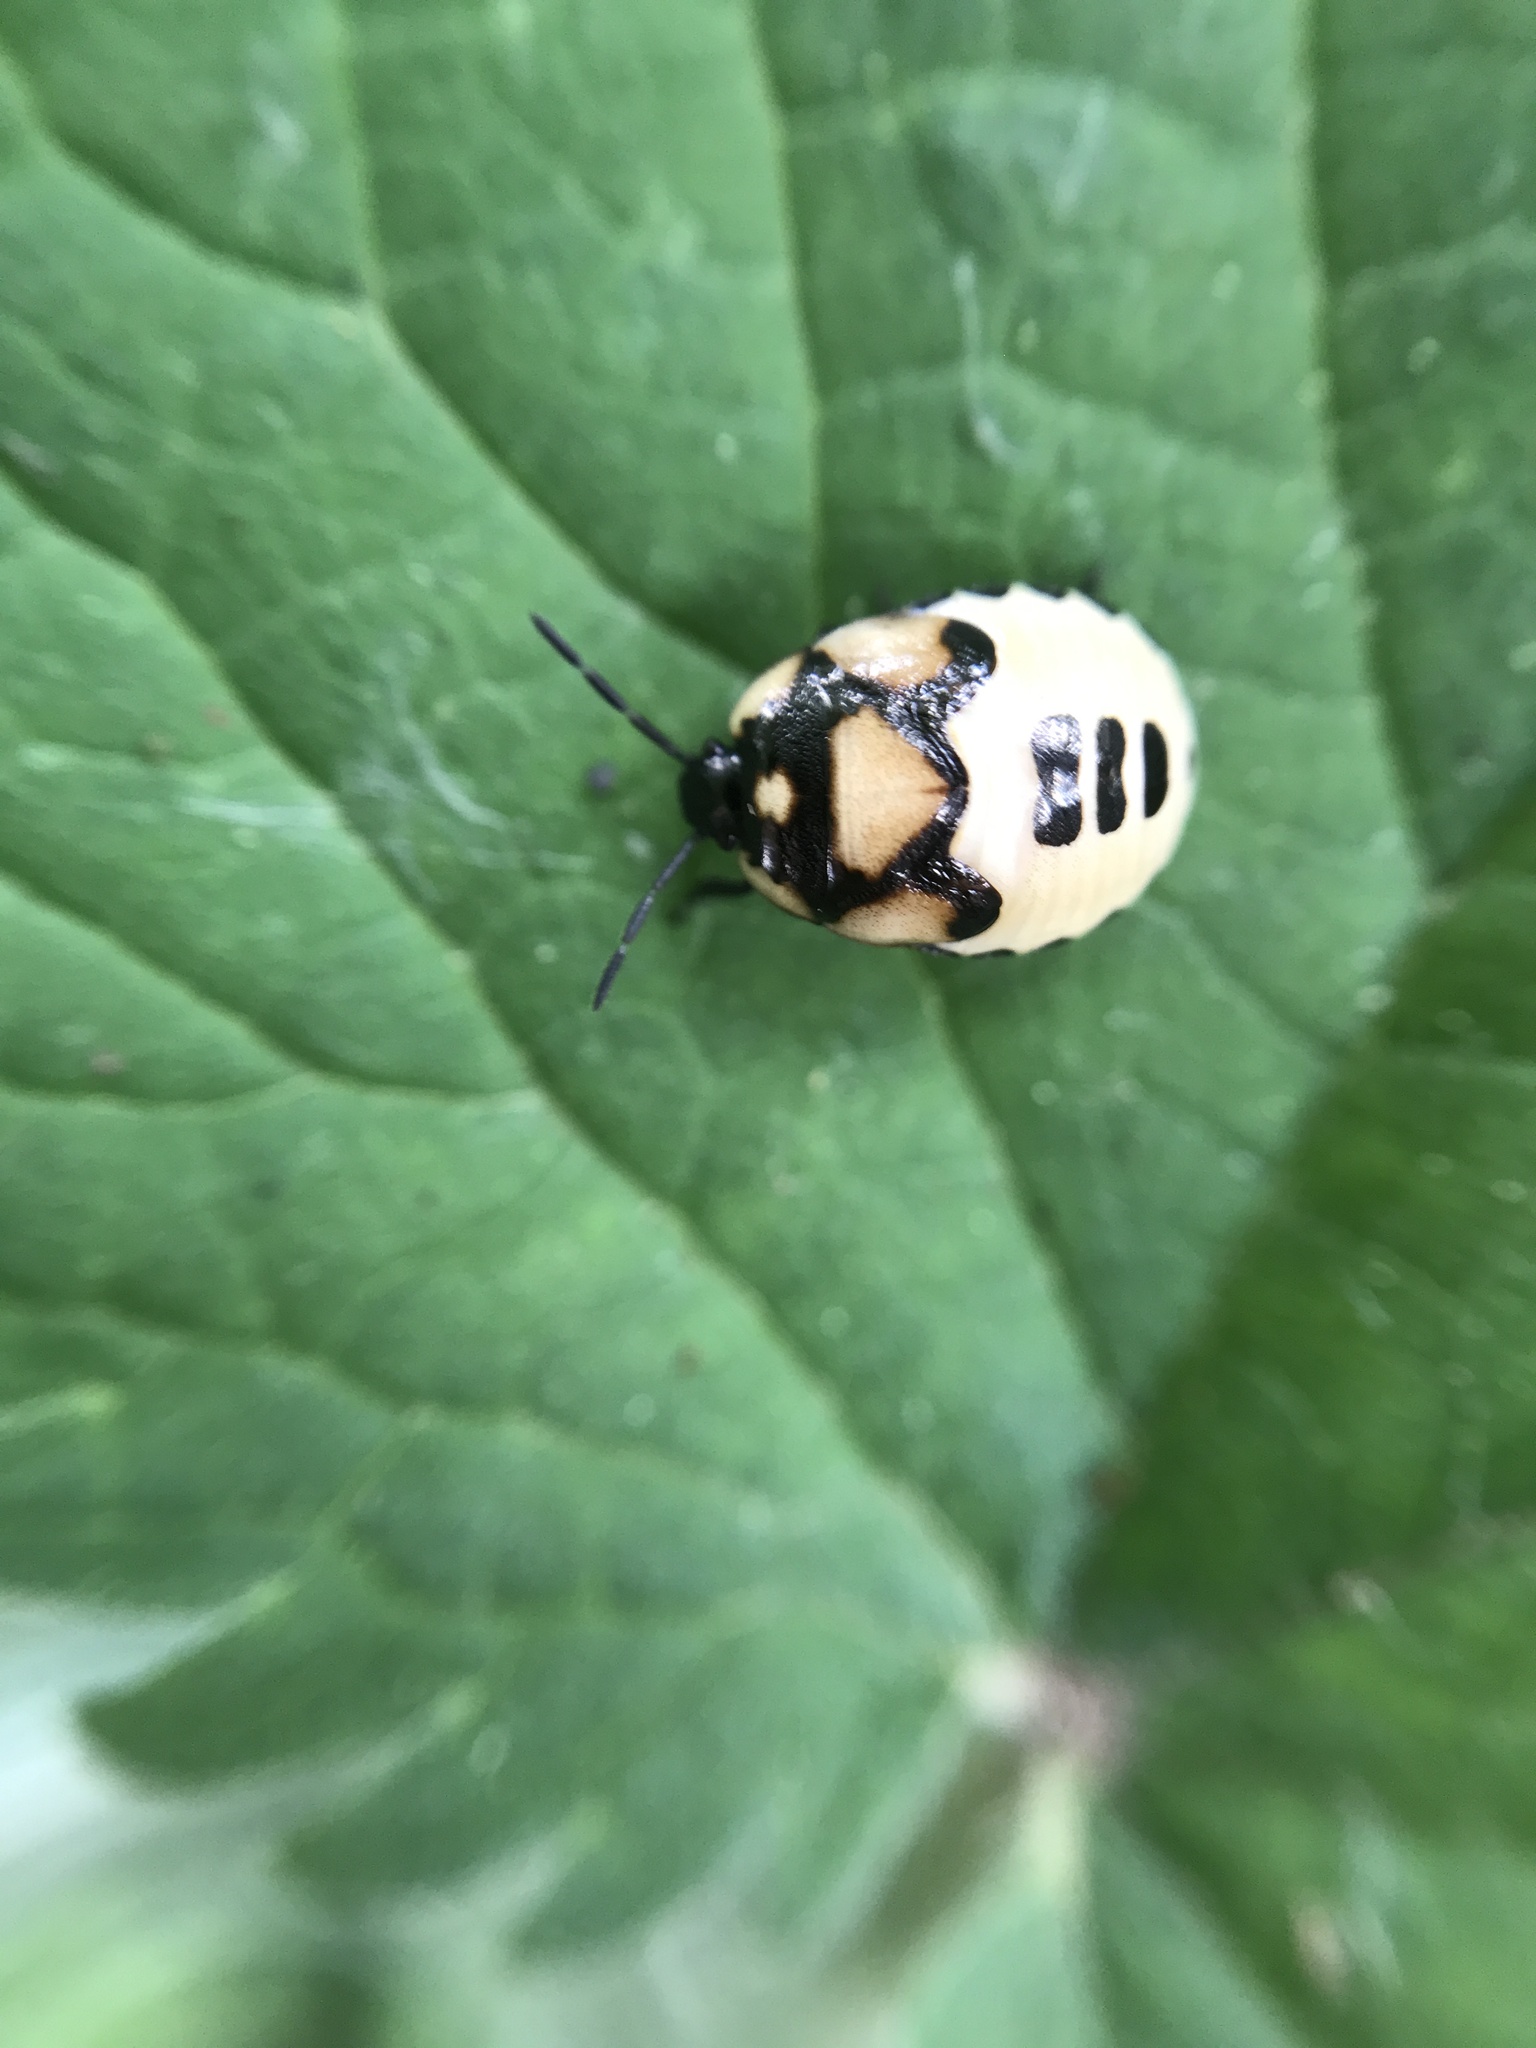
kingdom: Animalia
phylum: Arthropoda
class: Insecta
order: Hemiptera
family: Cydnidae
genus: Tritomegas
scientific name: Tritomegas bicolor
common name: Pied shieldbug
